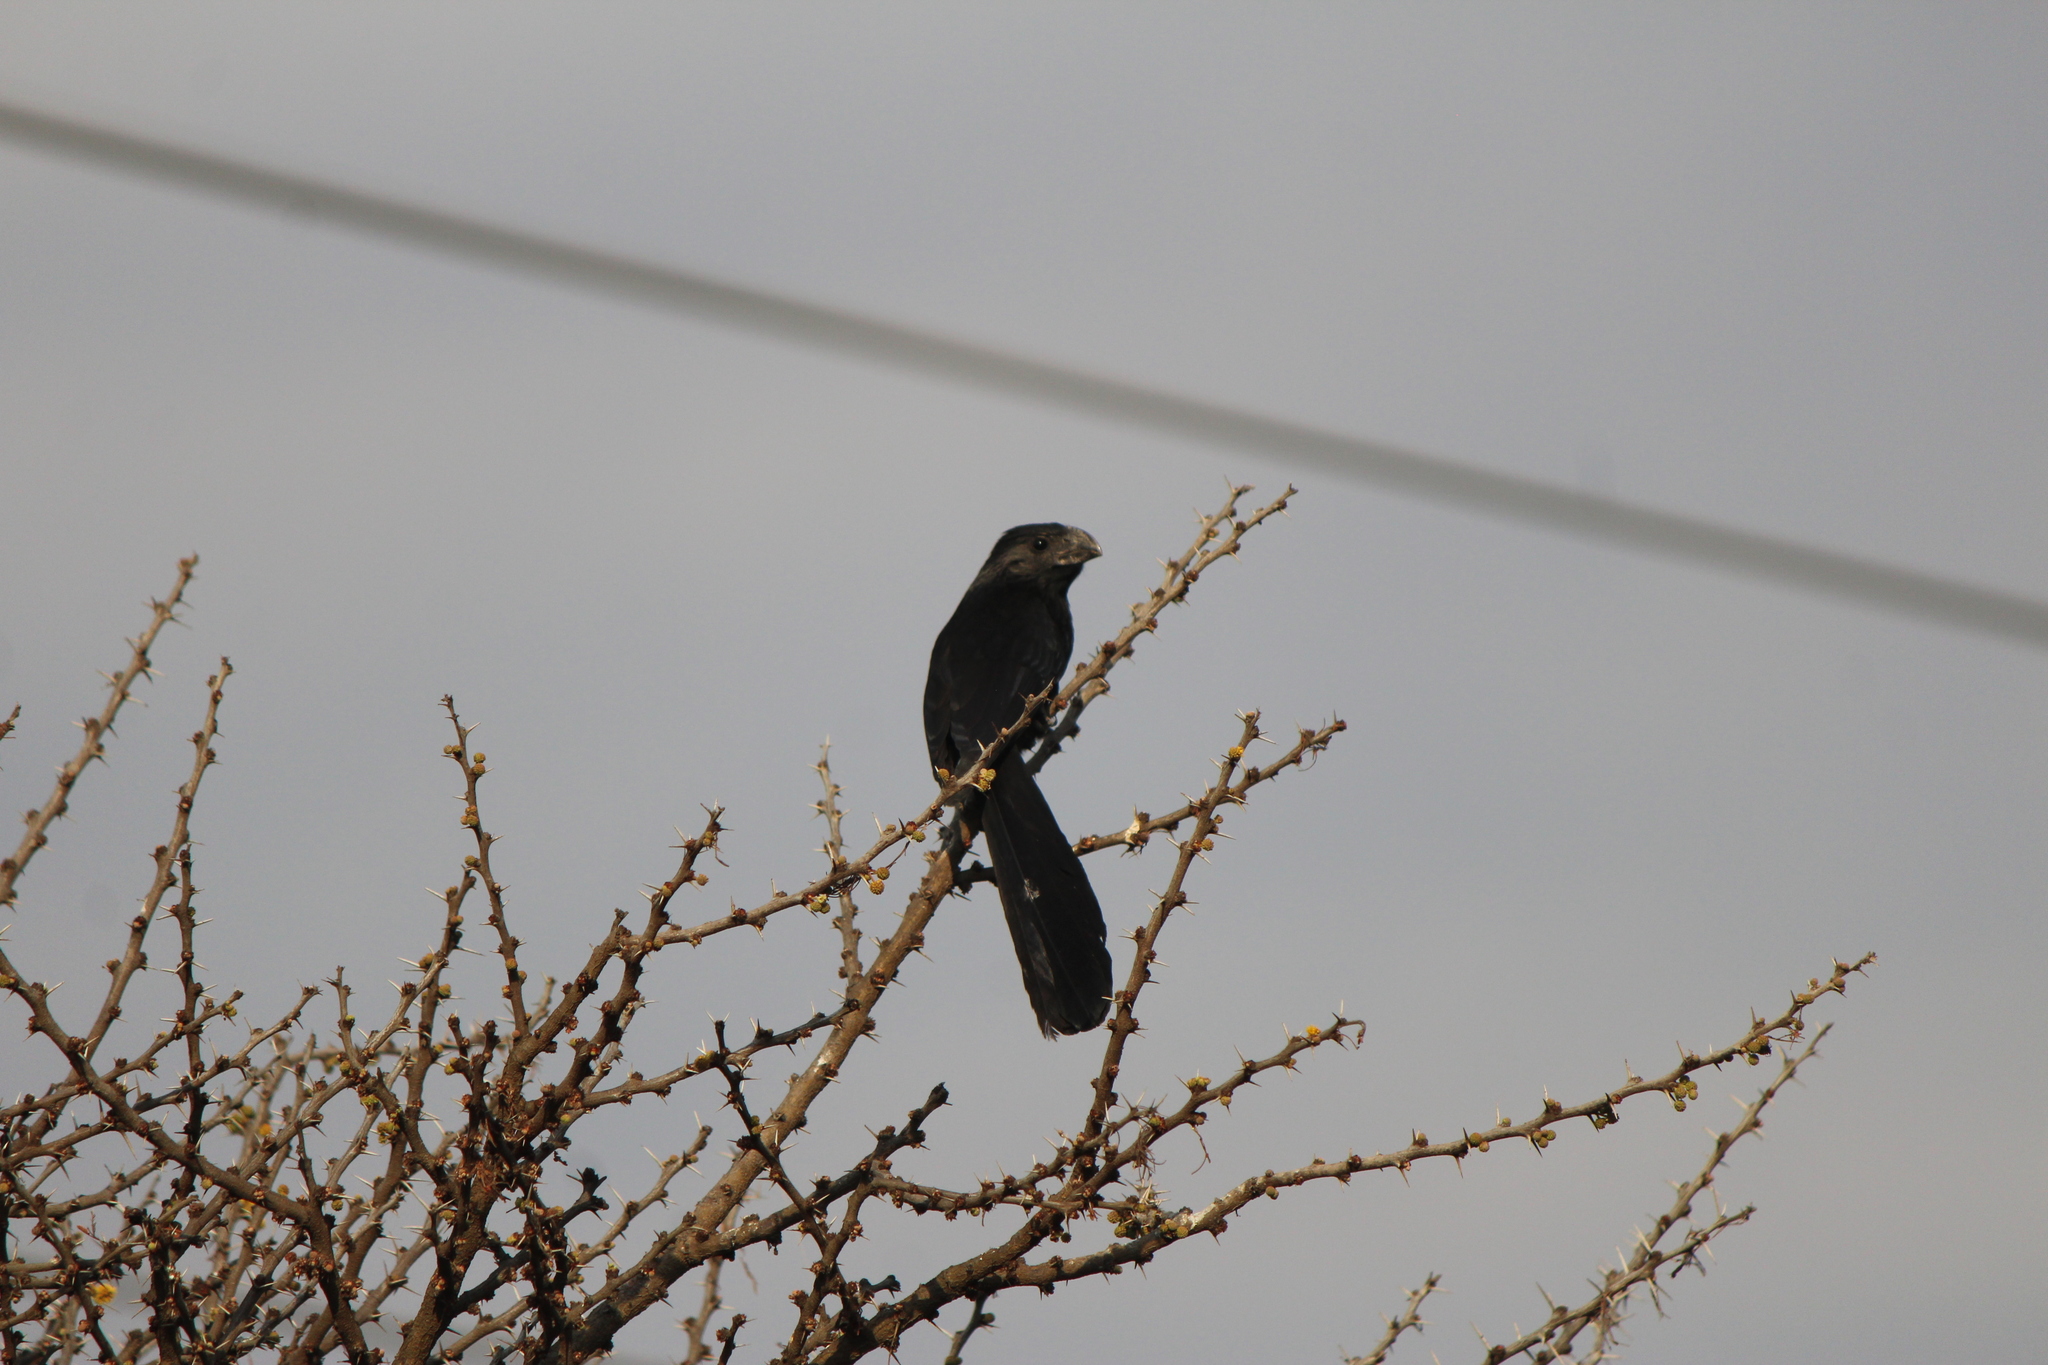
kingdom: Animalia
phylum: Chordata
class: Aves
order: Cuculiformes
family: Cuculidae
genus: Crotophaga
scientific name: Crotophaga sulcirostris
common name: Groove-billed ani
